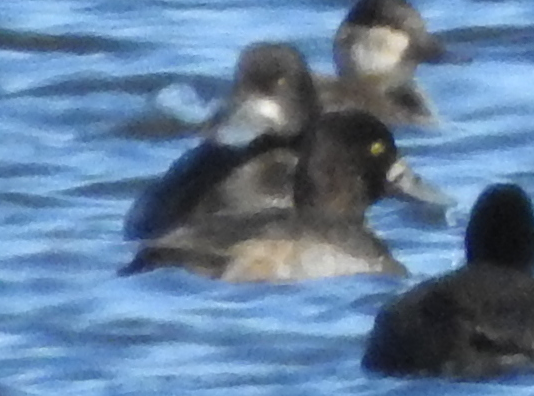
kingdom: Animalia
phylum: Chordata
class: Aves
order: Anseriformes
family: Anatidae
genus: Aythya
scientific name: Aythya affinis
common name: Lesser scaup
